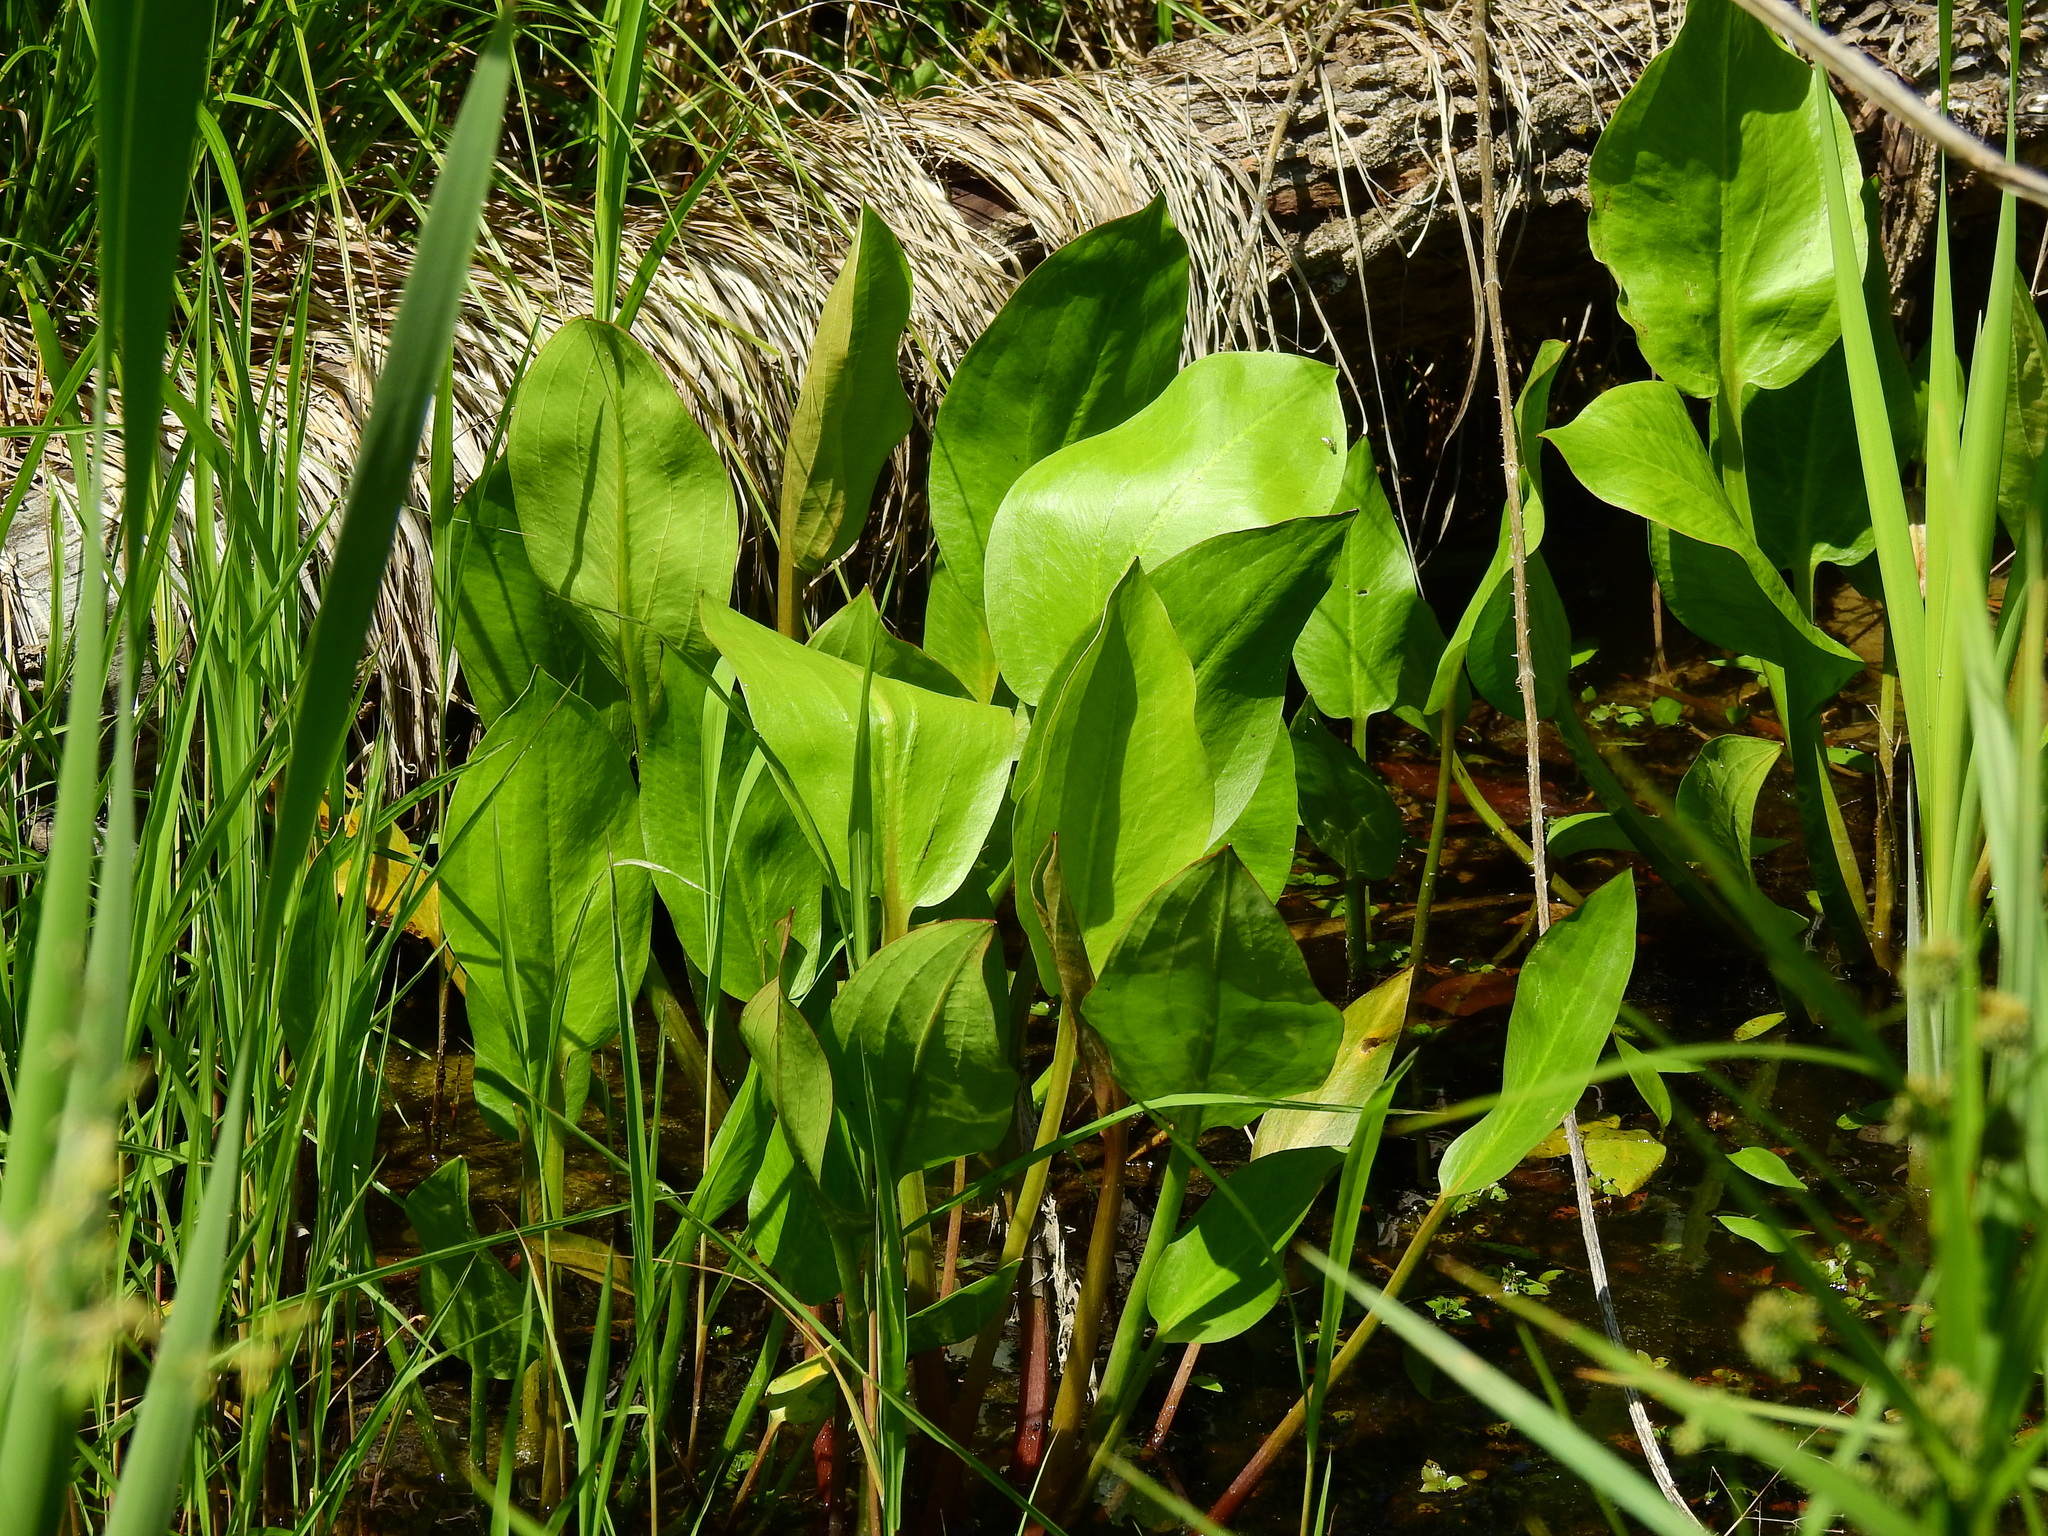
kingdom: Plantae
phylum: Tracheophyta
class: Liliopsida
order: Alismatales
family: Alismataceae
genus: Alisma
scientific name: Alisma subcordatum
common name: Southern water-plantain
